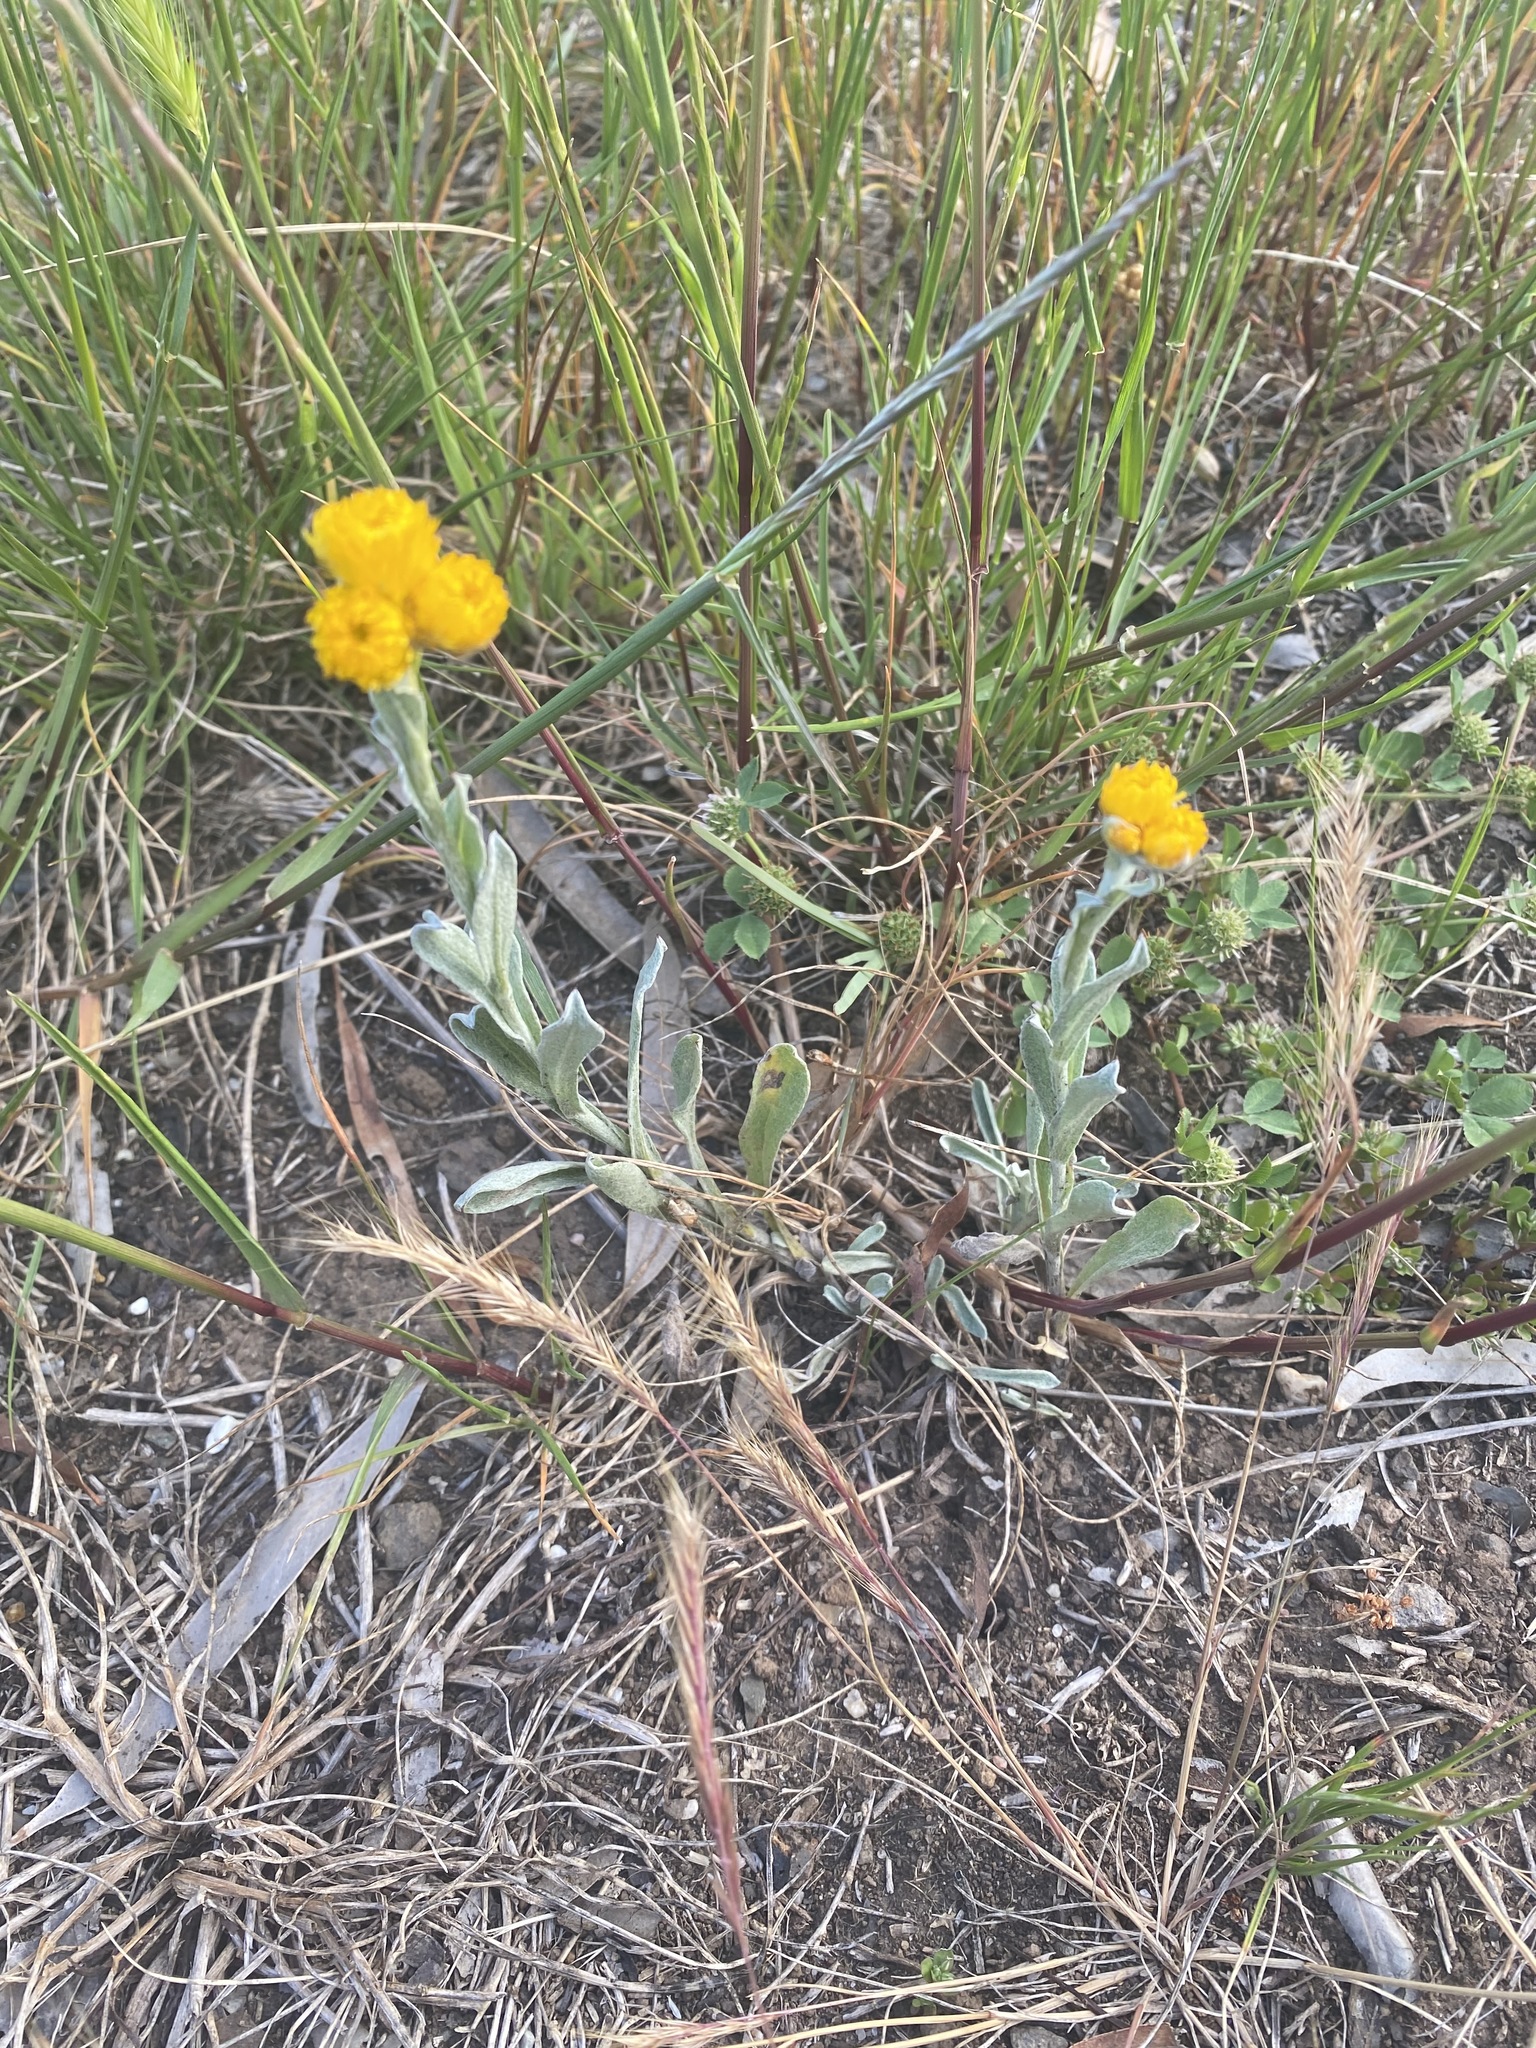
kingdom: Plantae
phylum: Tracheophyta
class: Magnoliopsida
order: Asterales
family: Asteraceae
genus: Chrysocephalum
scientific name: Chrysocephalum apiculatum
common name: Common everlasting
